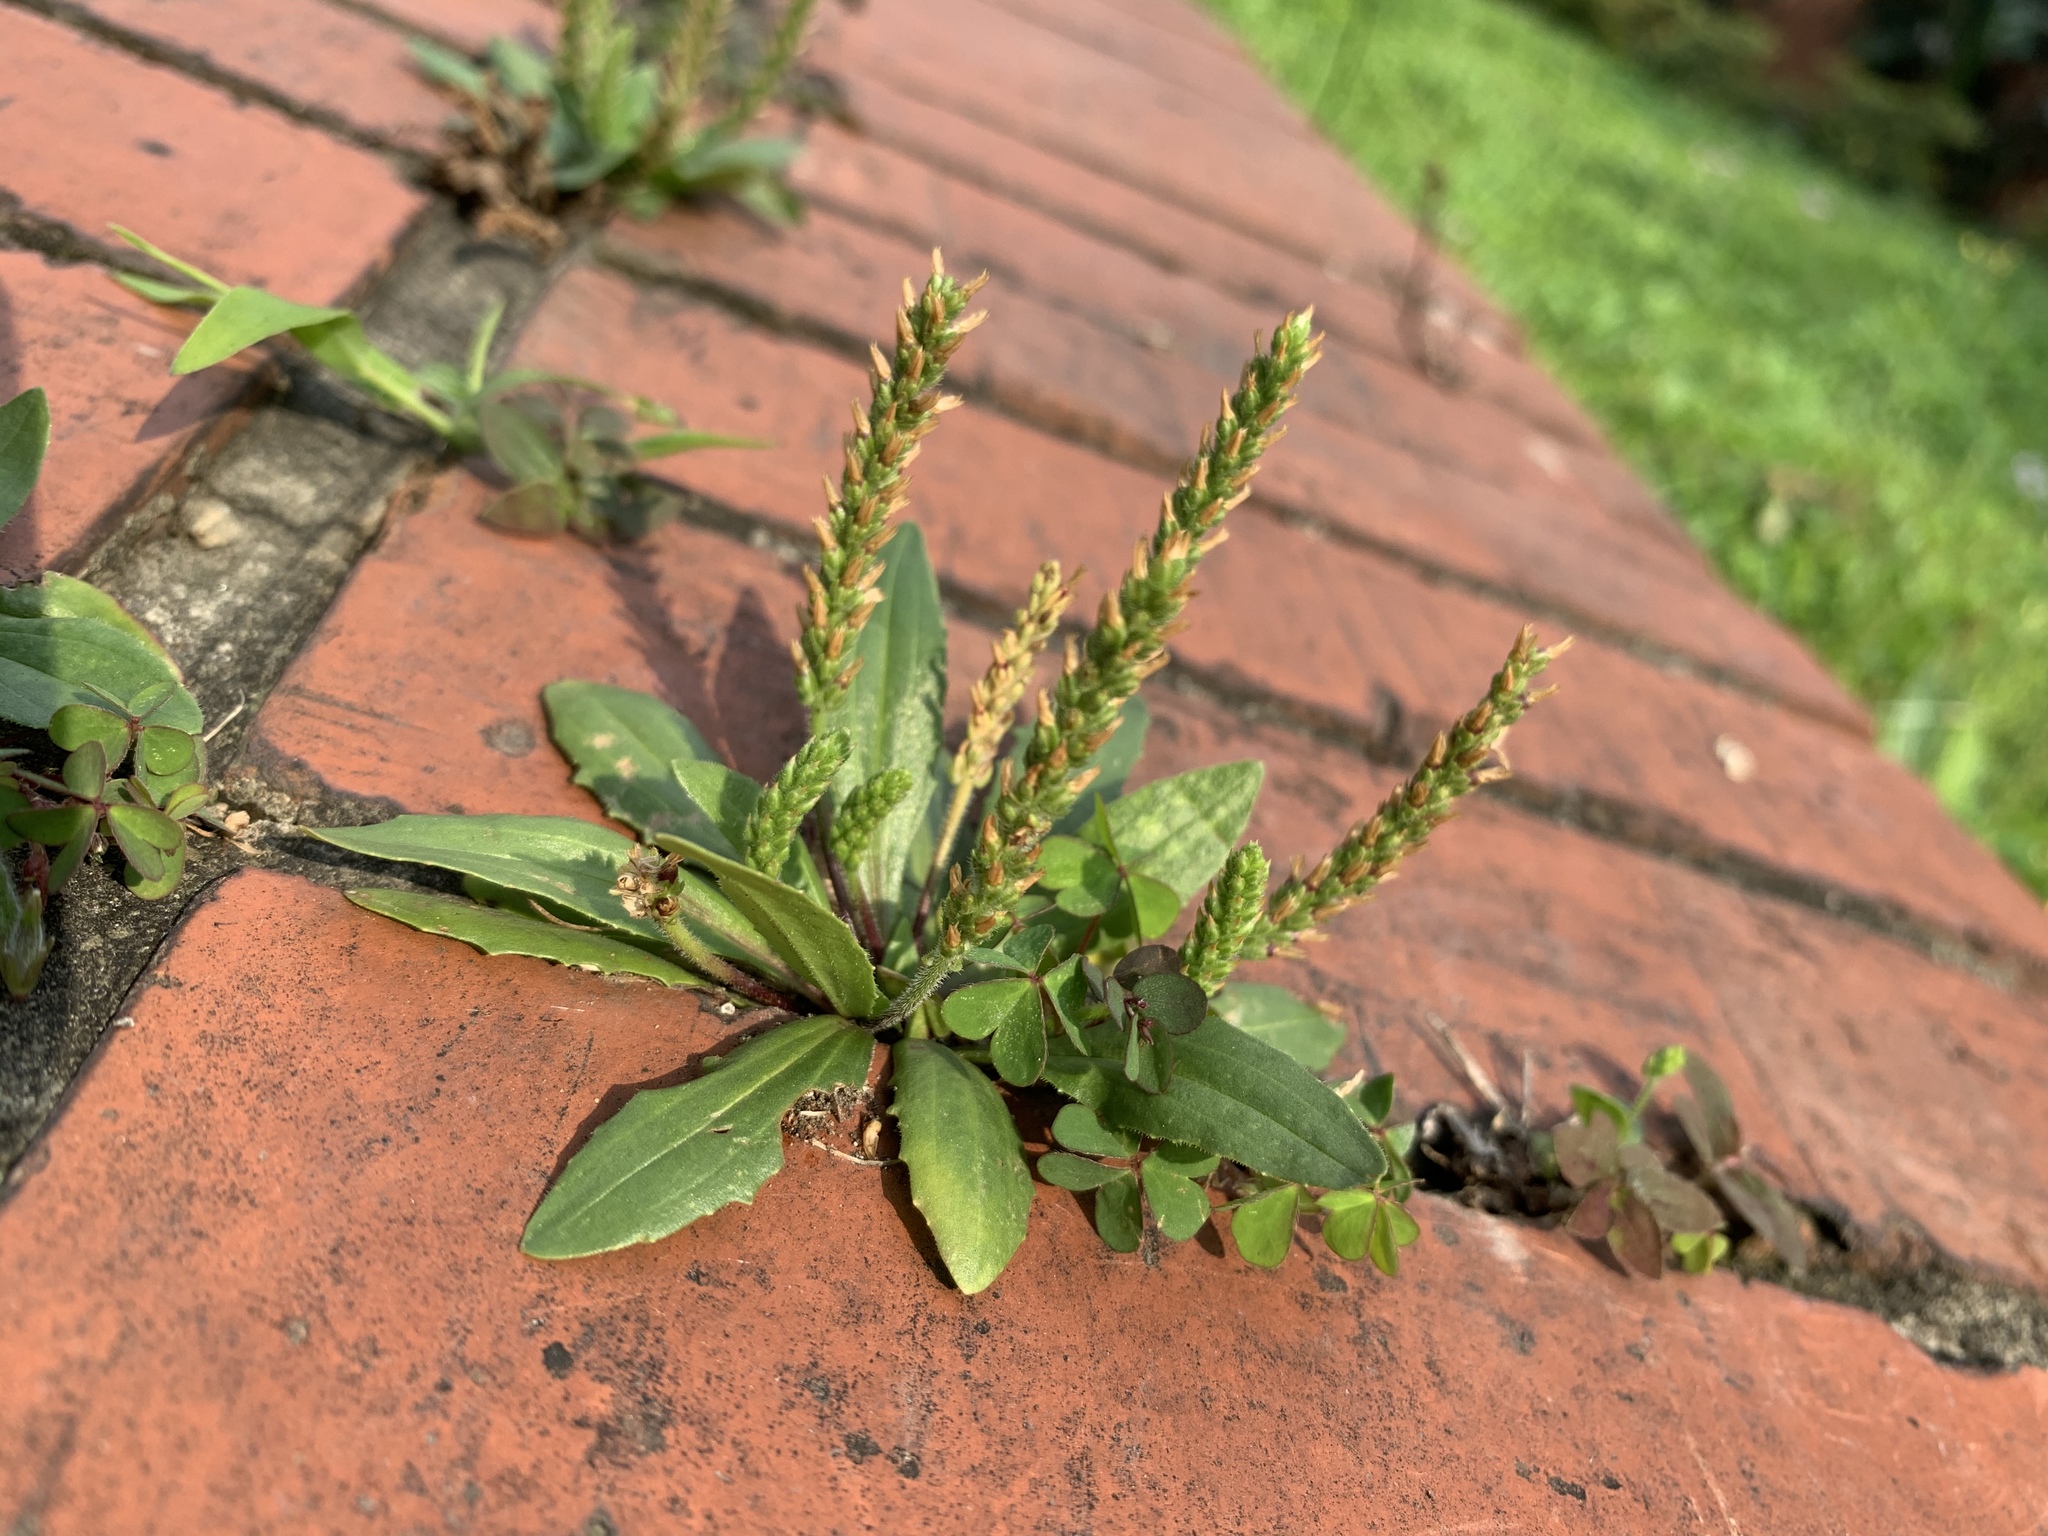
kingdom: Plantae
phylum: Tracheophyta
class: Magnoliopsida
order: Lamiales
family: Plantaginaceae
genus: Plantago
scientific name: Plantago virginica
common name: Hoary plantain
